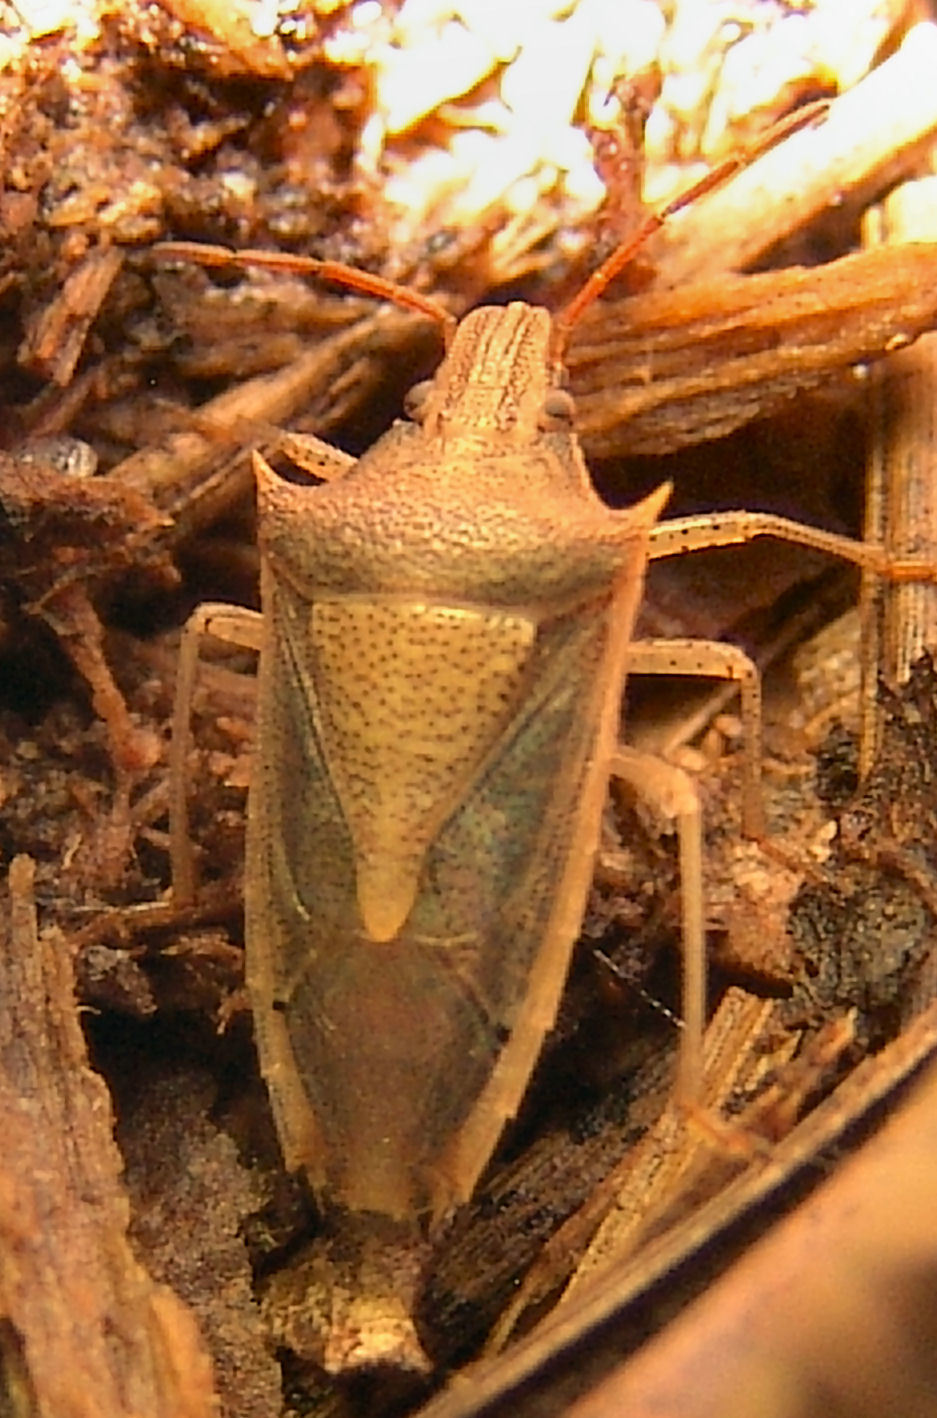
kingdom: Animalia
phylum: Arthropoda
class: Insecta
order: Hemiptera
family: Pentatomidae
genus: Oebalus
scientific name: Oebalus pugnax
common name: Rice stink bug
